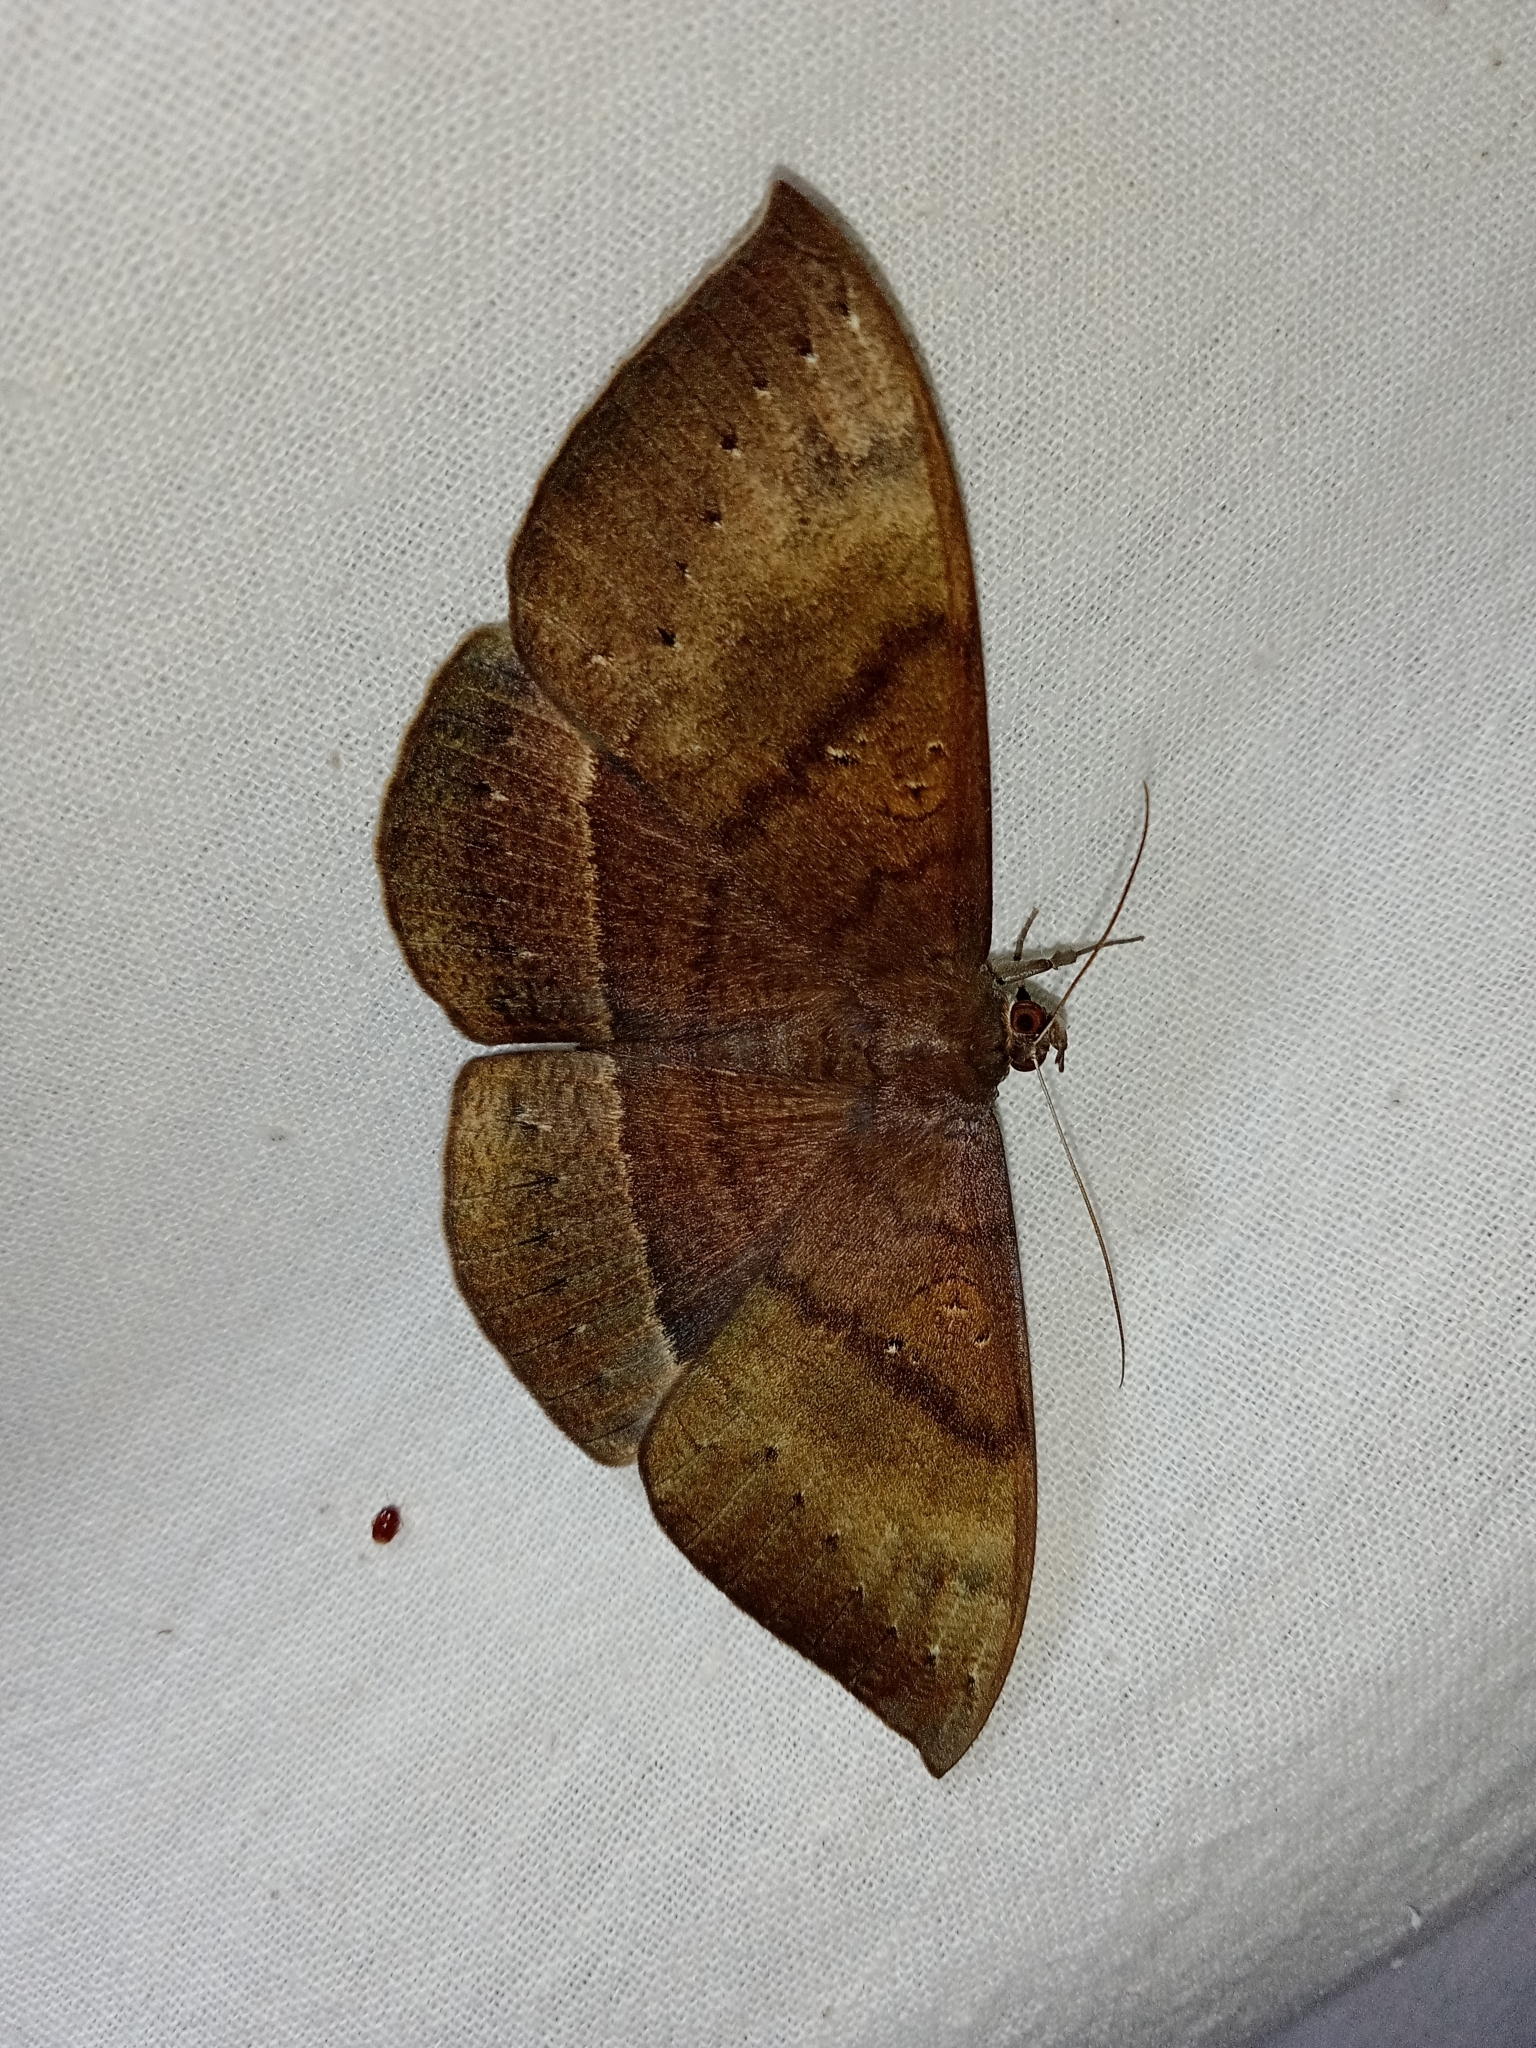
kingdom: Animalia
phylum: Arthropoda
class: Insecta
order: Lepidoptera
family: Erebidae
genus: Lygniodes
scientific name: Lygniodes vampyrus
